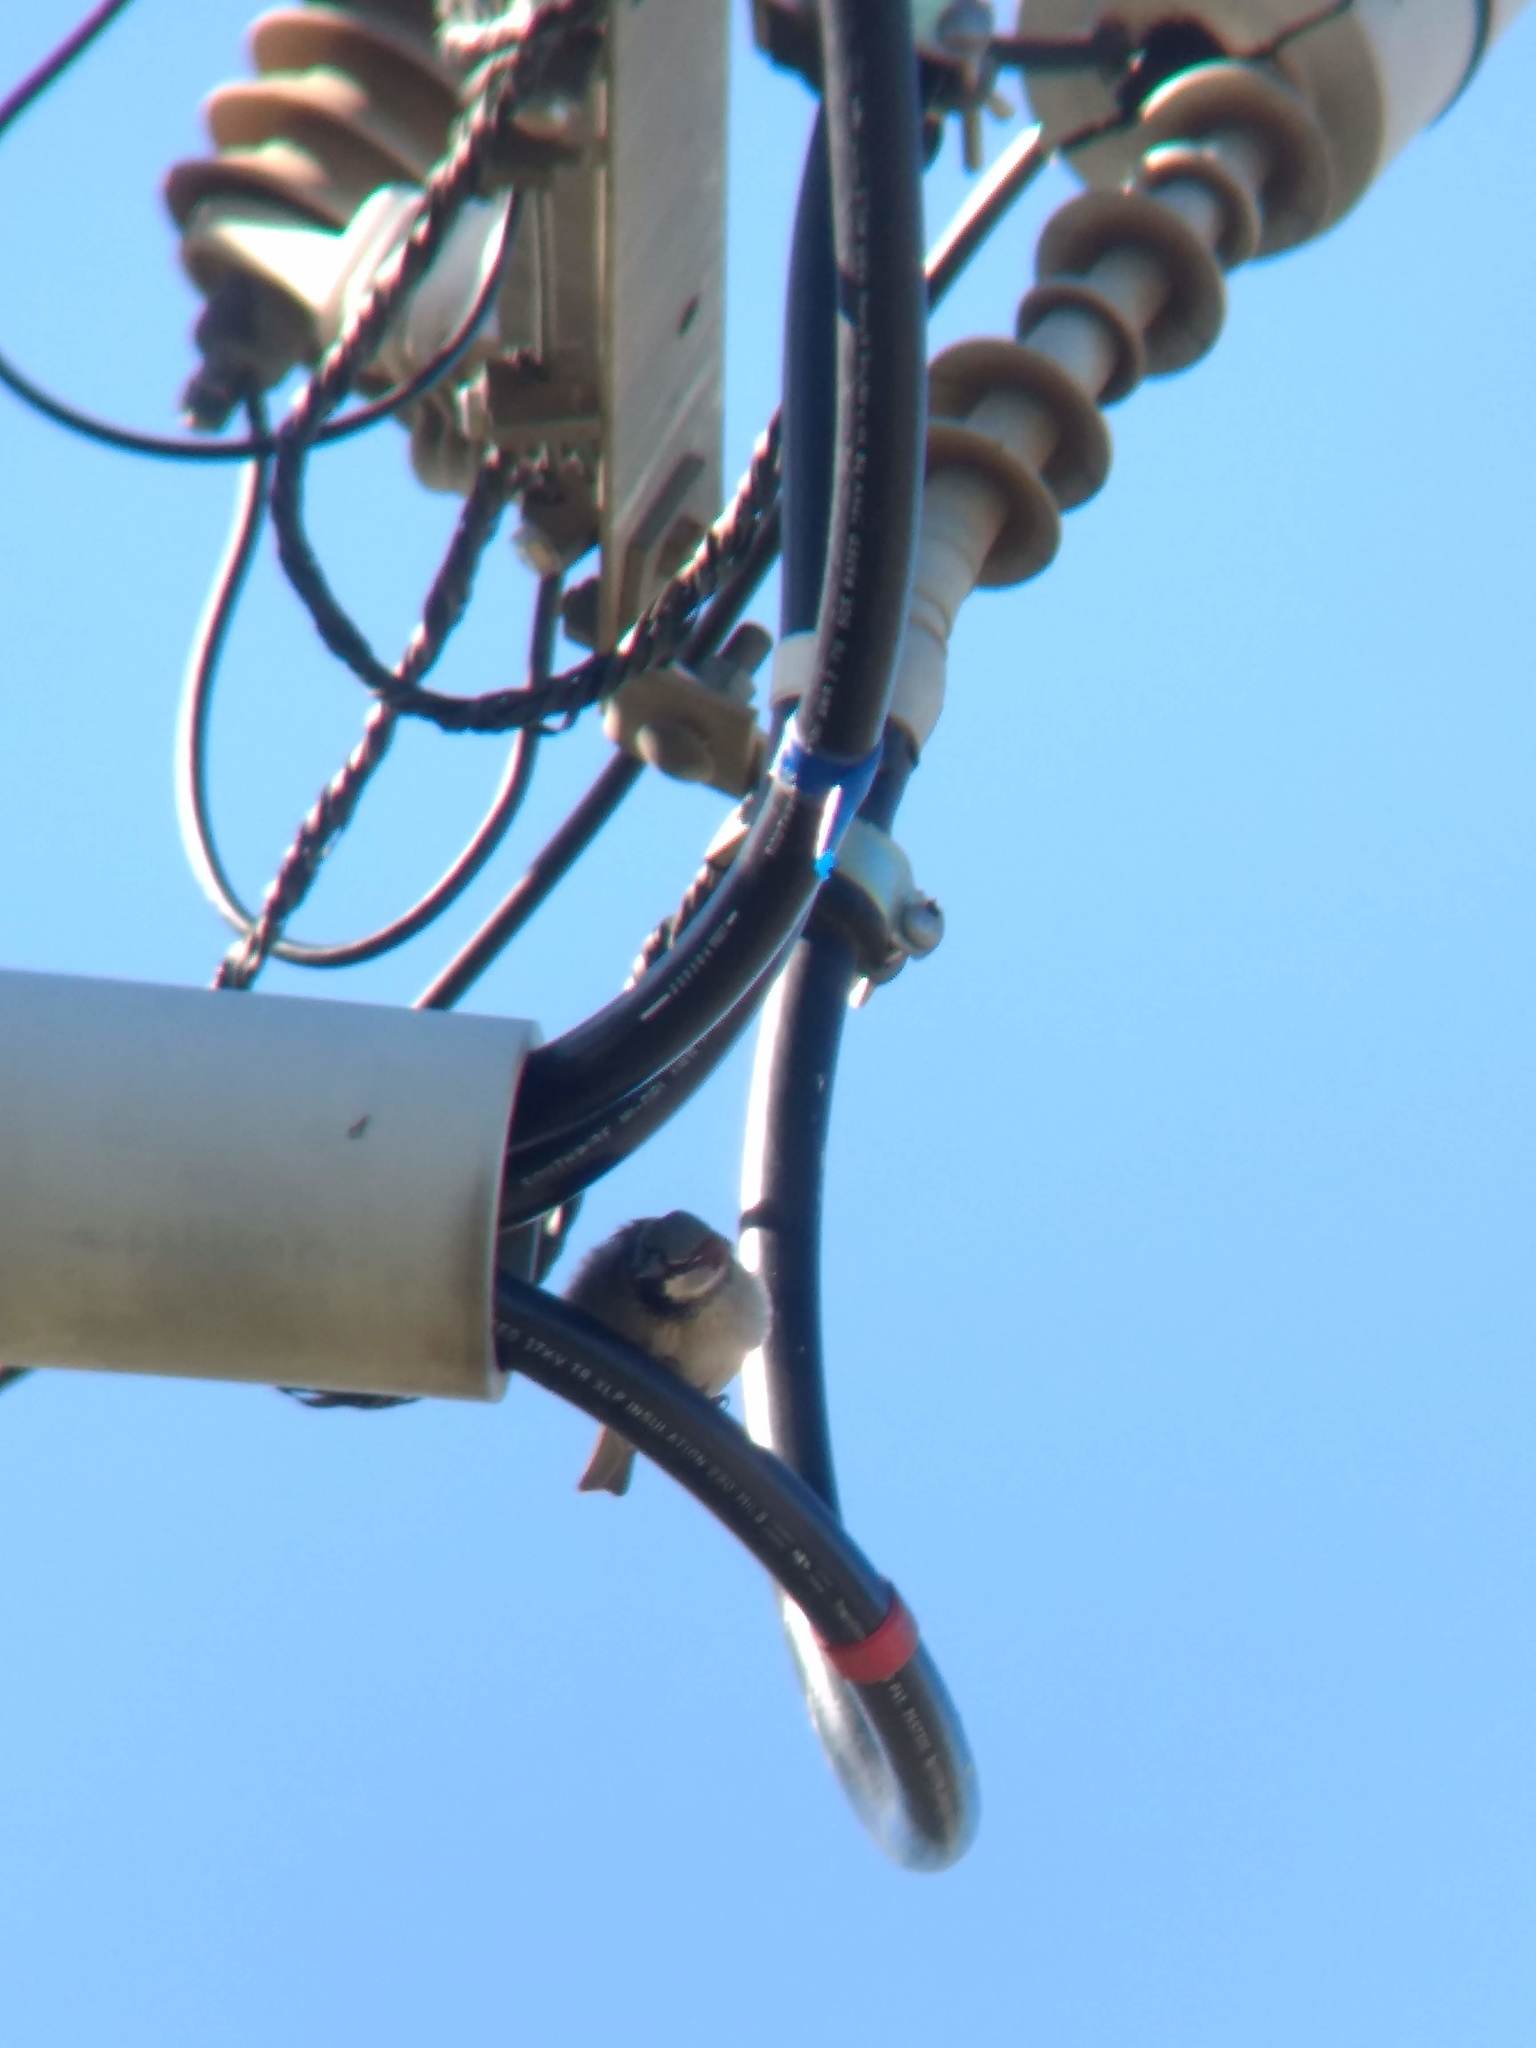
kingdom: Animalia
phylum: Chordata
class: Aves
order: Passeriformes
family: Passeridae
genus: Passer
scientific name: Passer domesticus
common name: House sparrow
